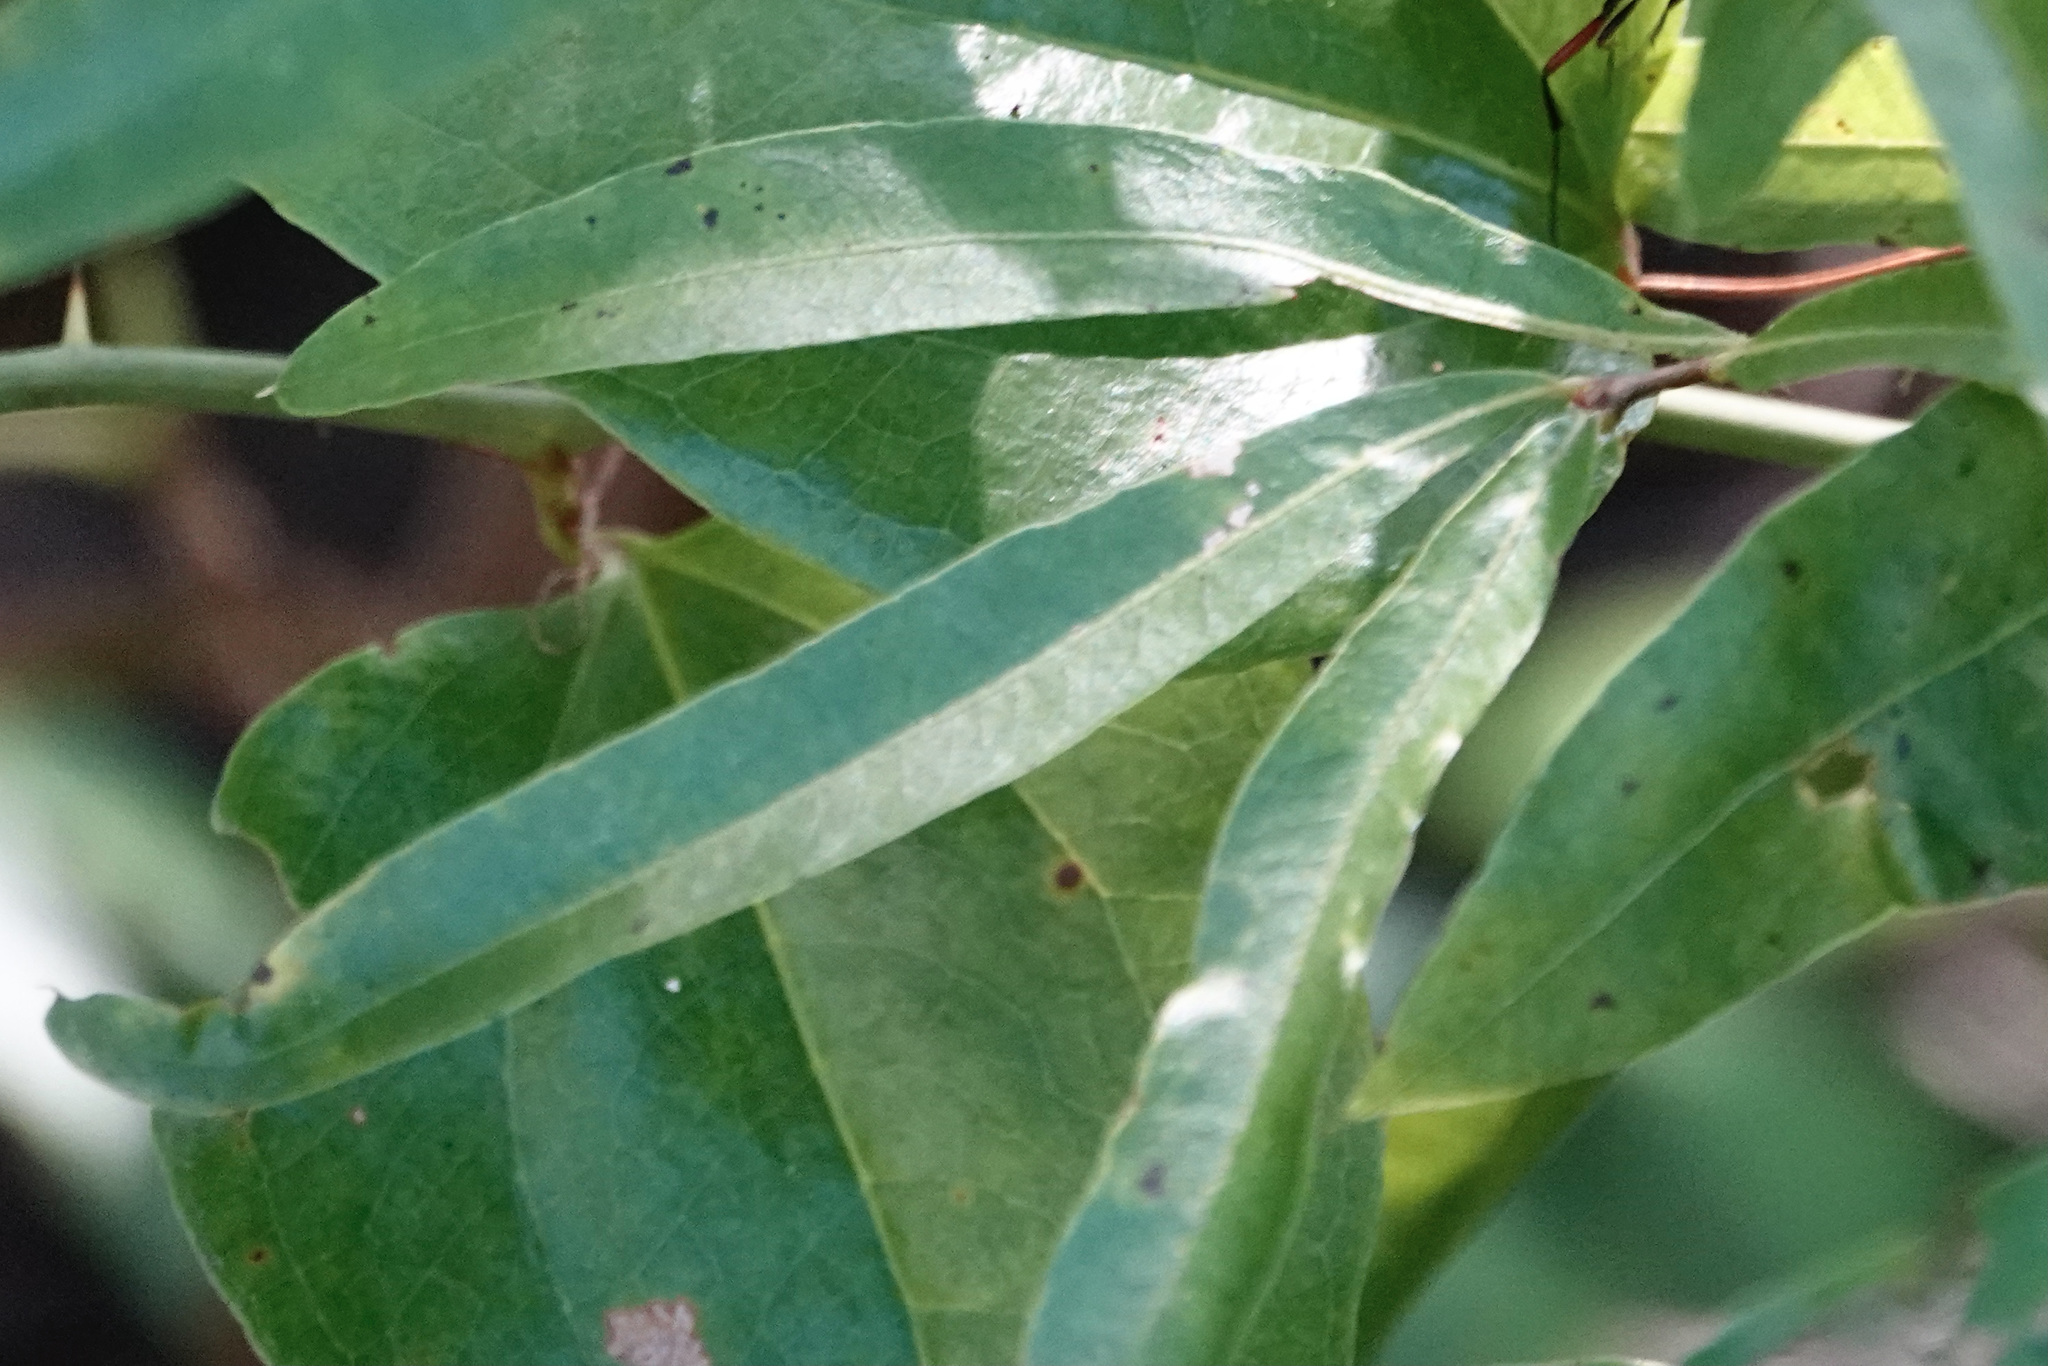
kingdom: Plantae
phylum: Tracheophyta
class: Magnoliopsida
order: Fagales
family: Fagaceae
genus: Quercus
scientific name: Quercus phellos
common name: Willow oak
